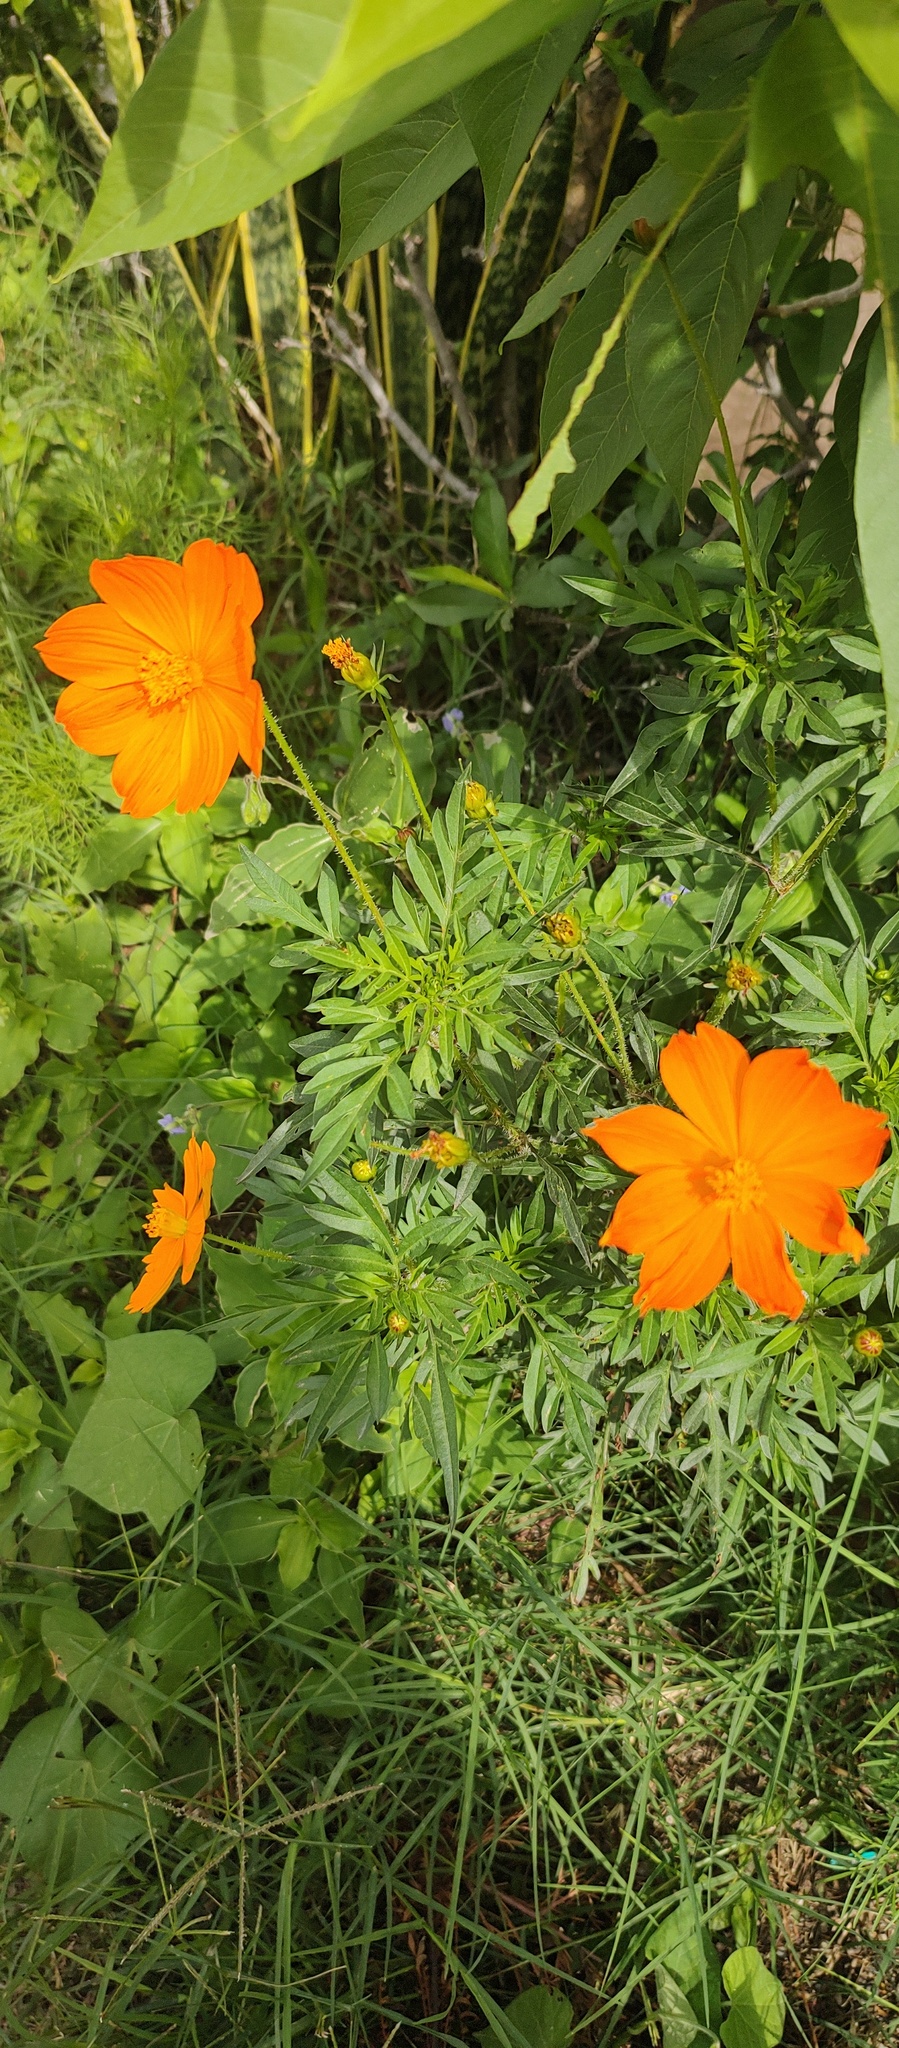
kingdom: Plantae
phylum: Tracheophyta
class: Magnoliopsida
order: Asterales
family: Asteraceae
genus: Cosmos
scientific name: Cosmos sulphureus
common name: Sulphur cosmos
